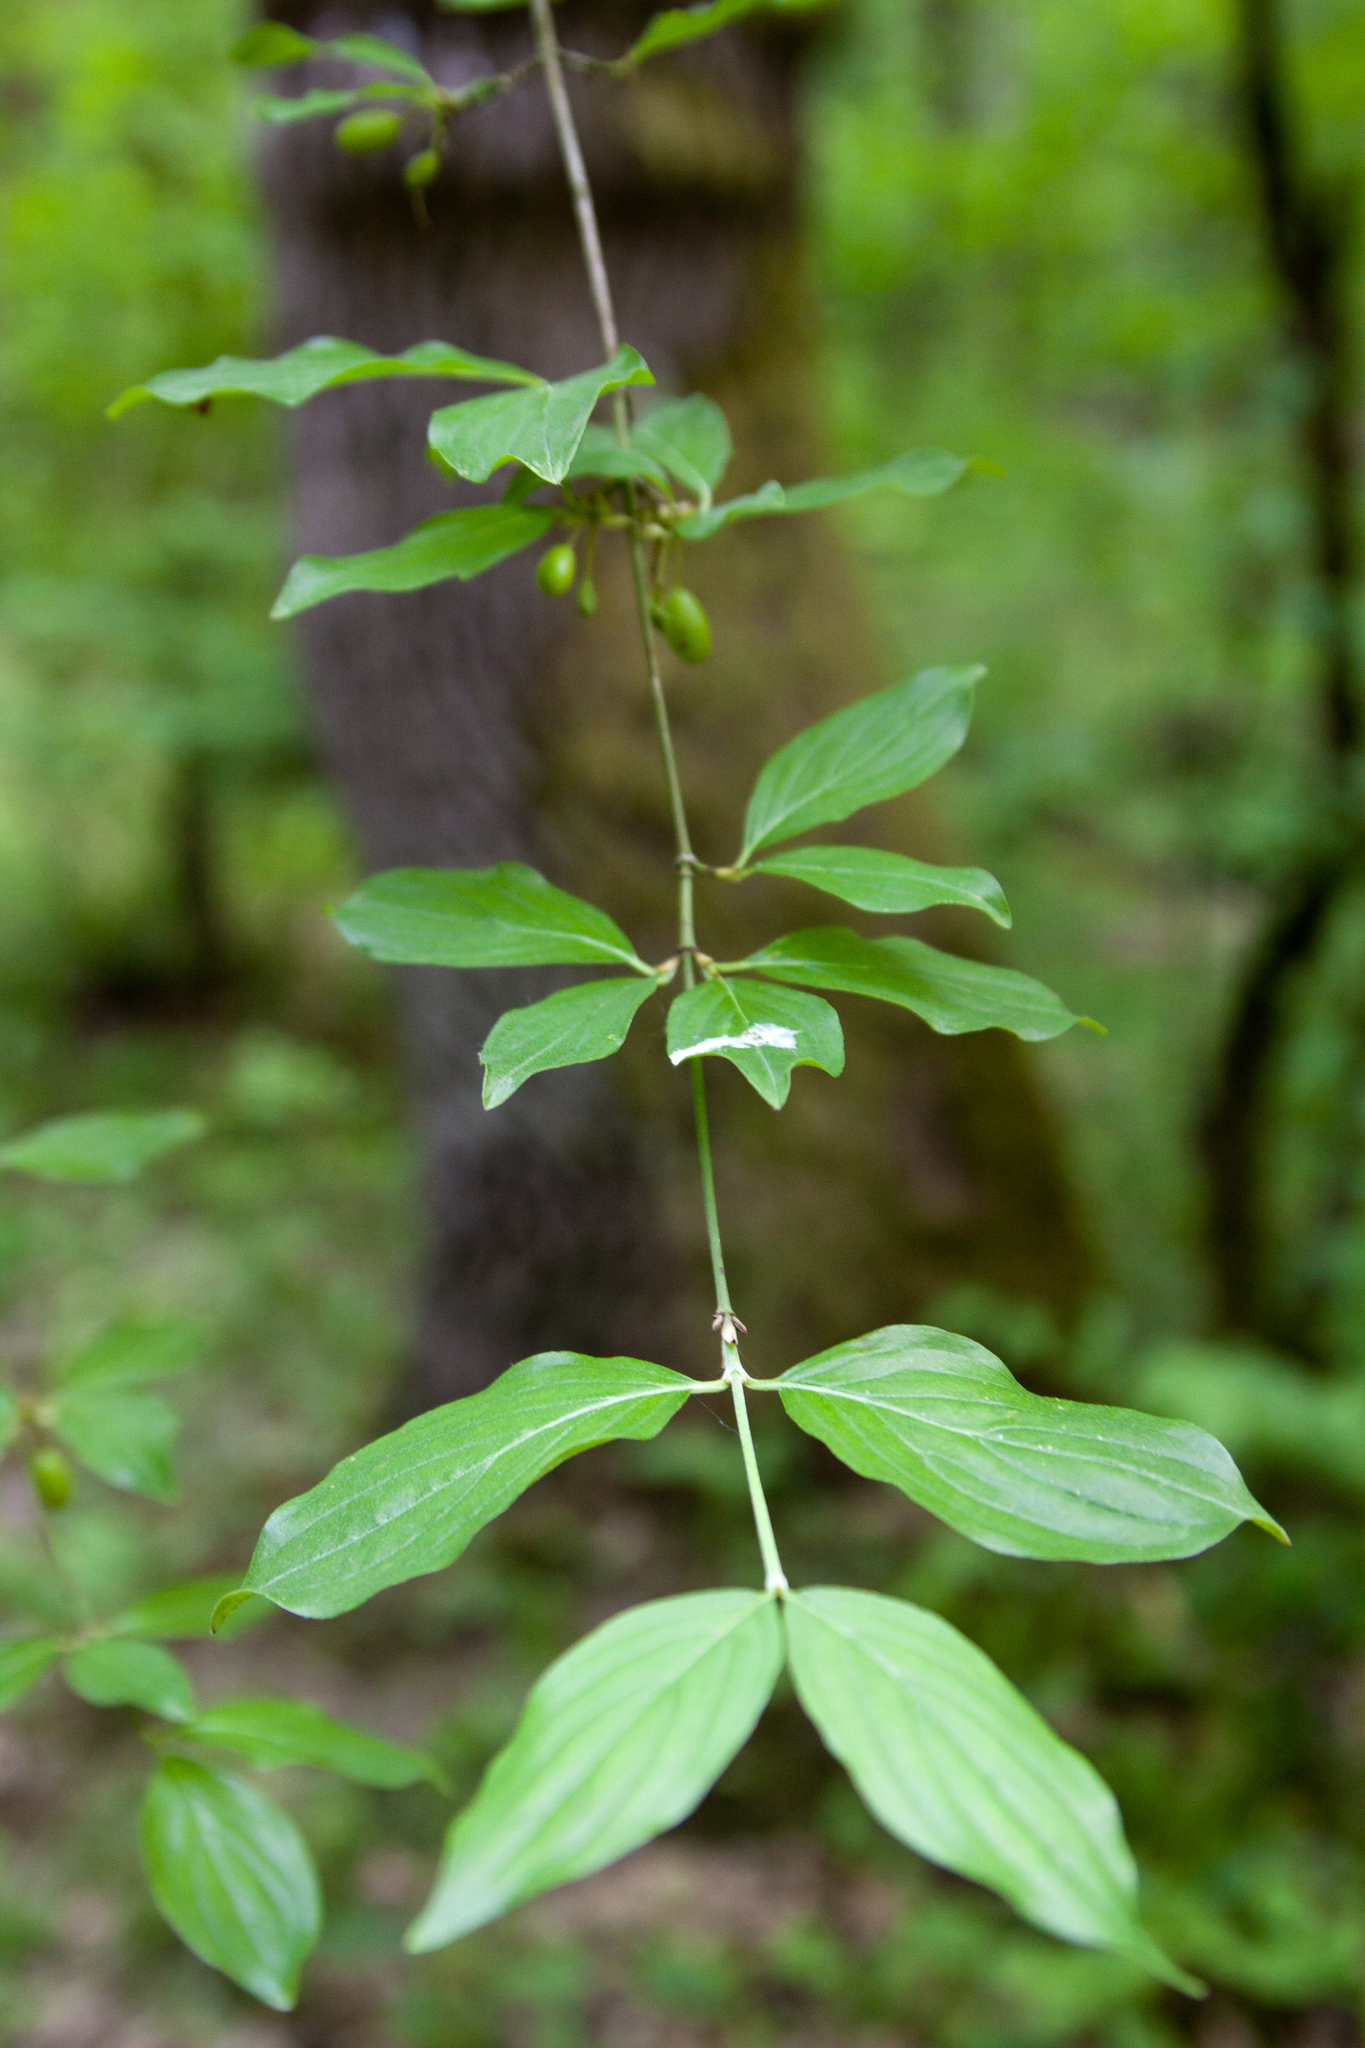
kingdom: Plantae
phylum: Tracheophyta
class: Magnoliopsida
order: Cornales
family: Cornaceae
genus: Cornus
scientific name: Cornus mas
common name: Cornelian-cherry
